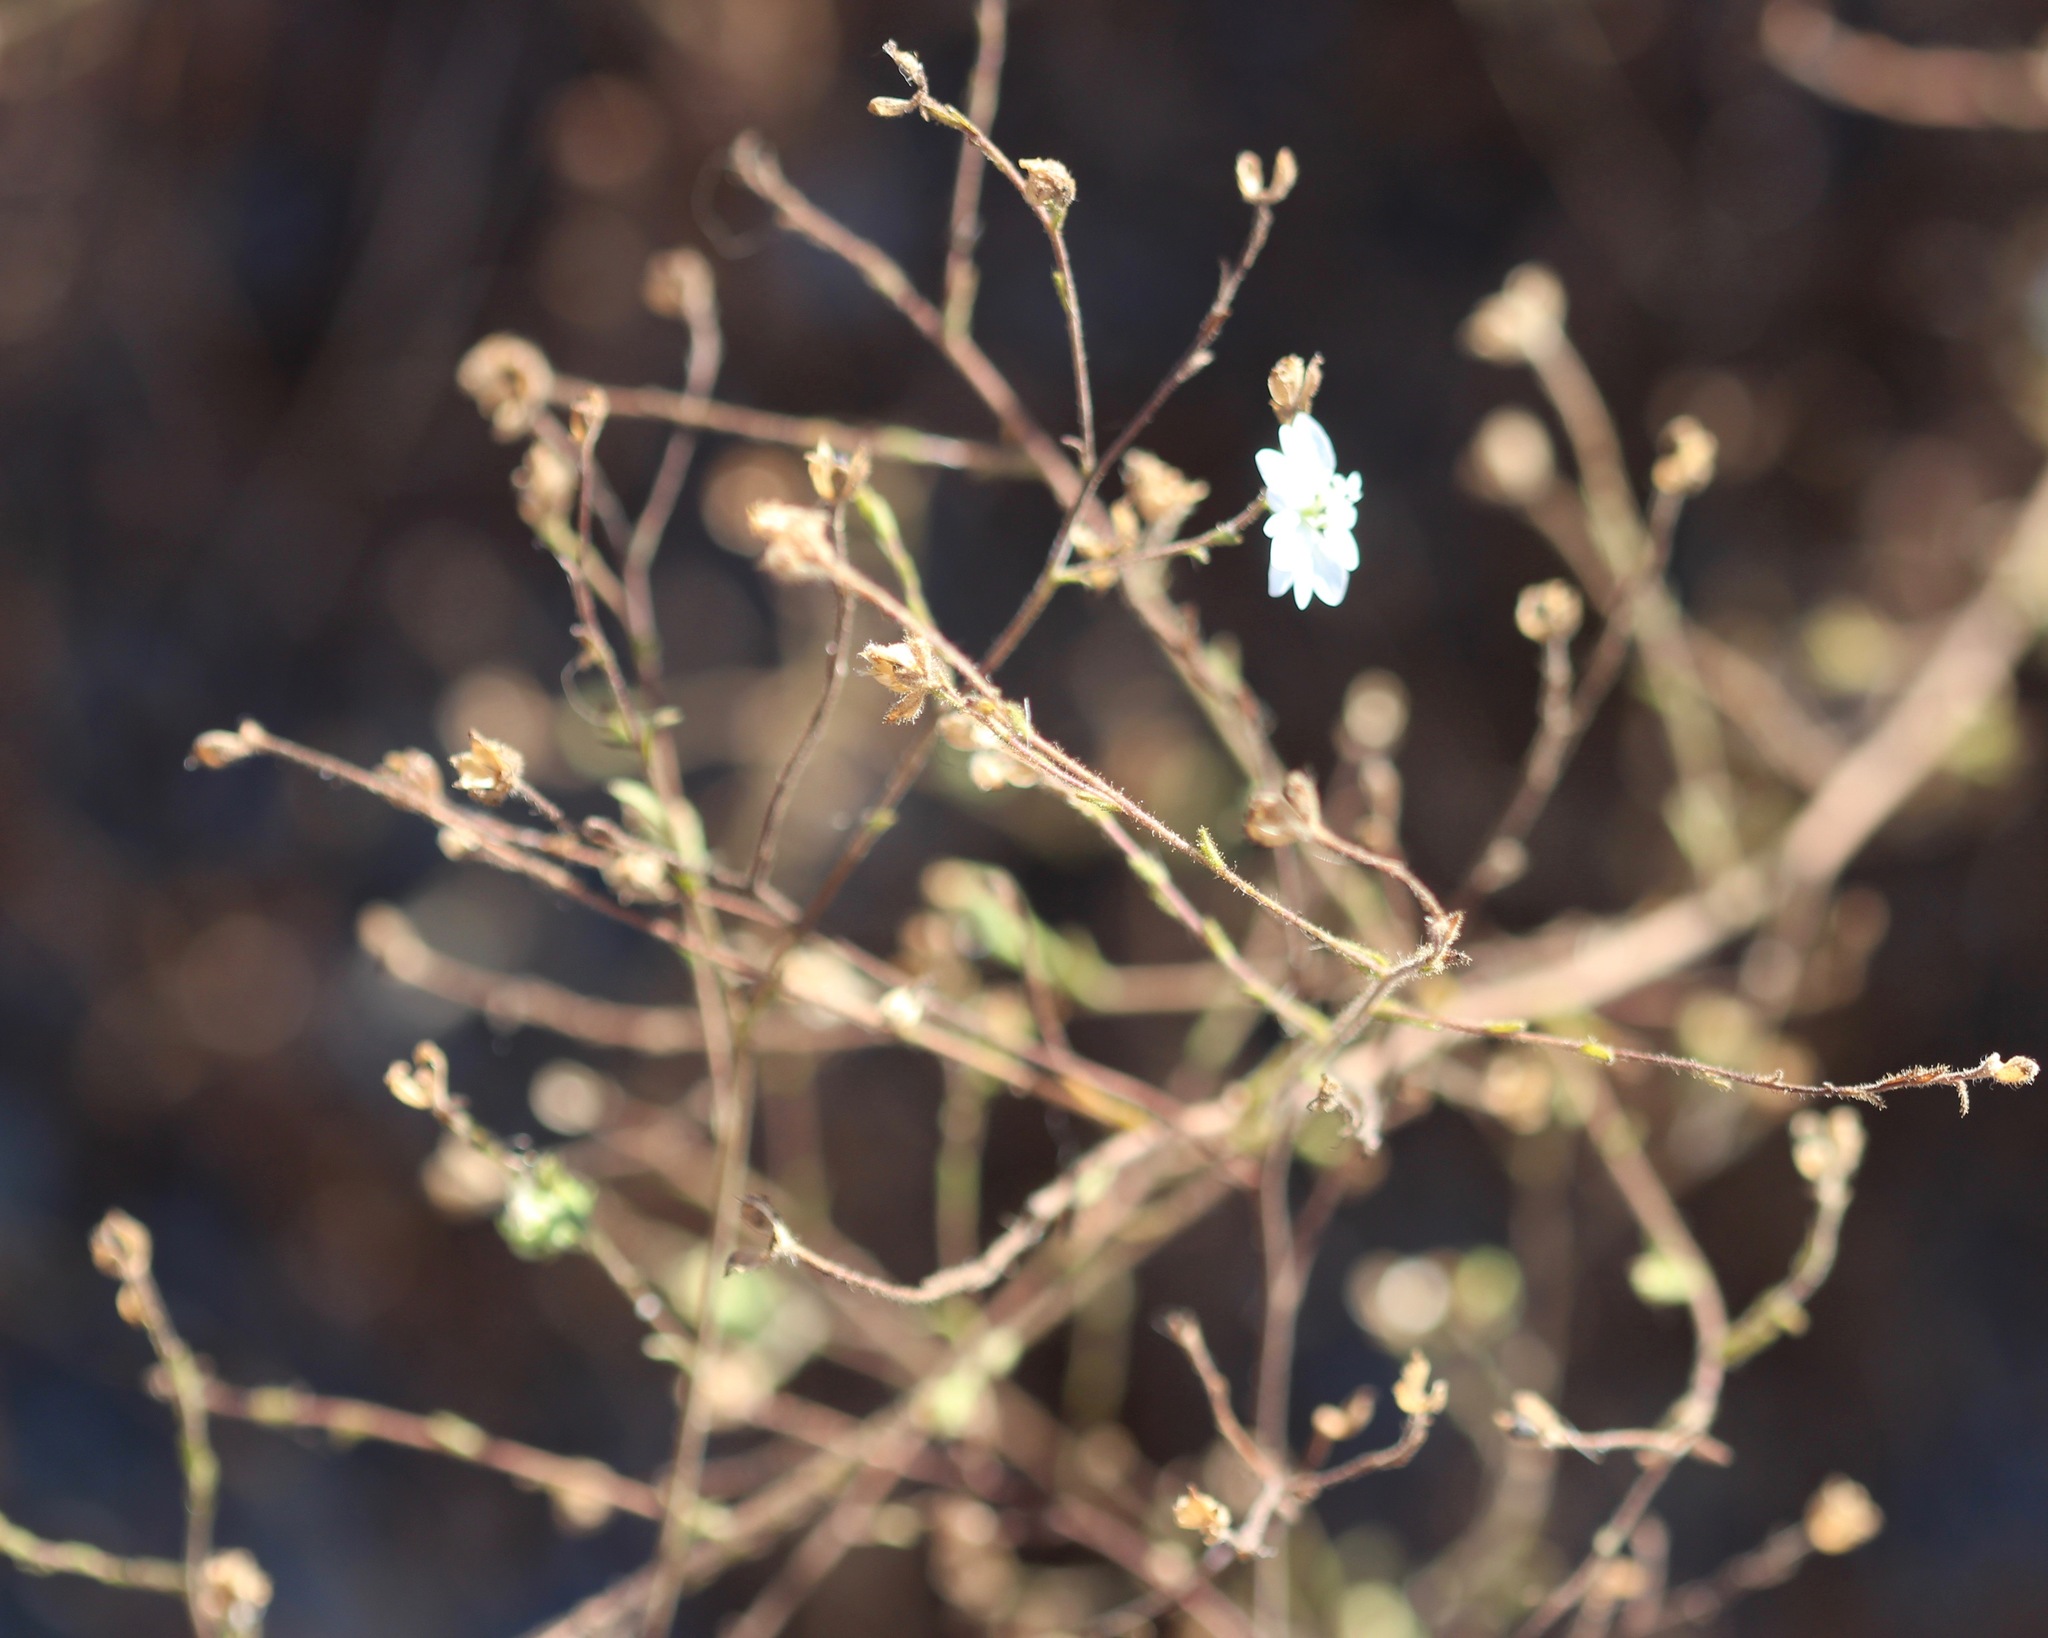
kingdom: Plantae
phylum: Tracheophyta
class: Magnoliopsida
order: Asterales
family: Asteraceae
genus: Hemizonia
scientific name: Hemizonia congesta
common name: Hayfield tarweed
